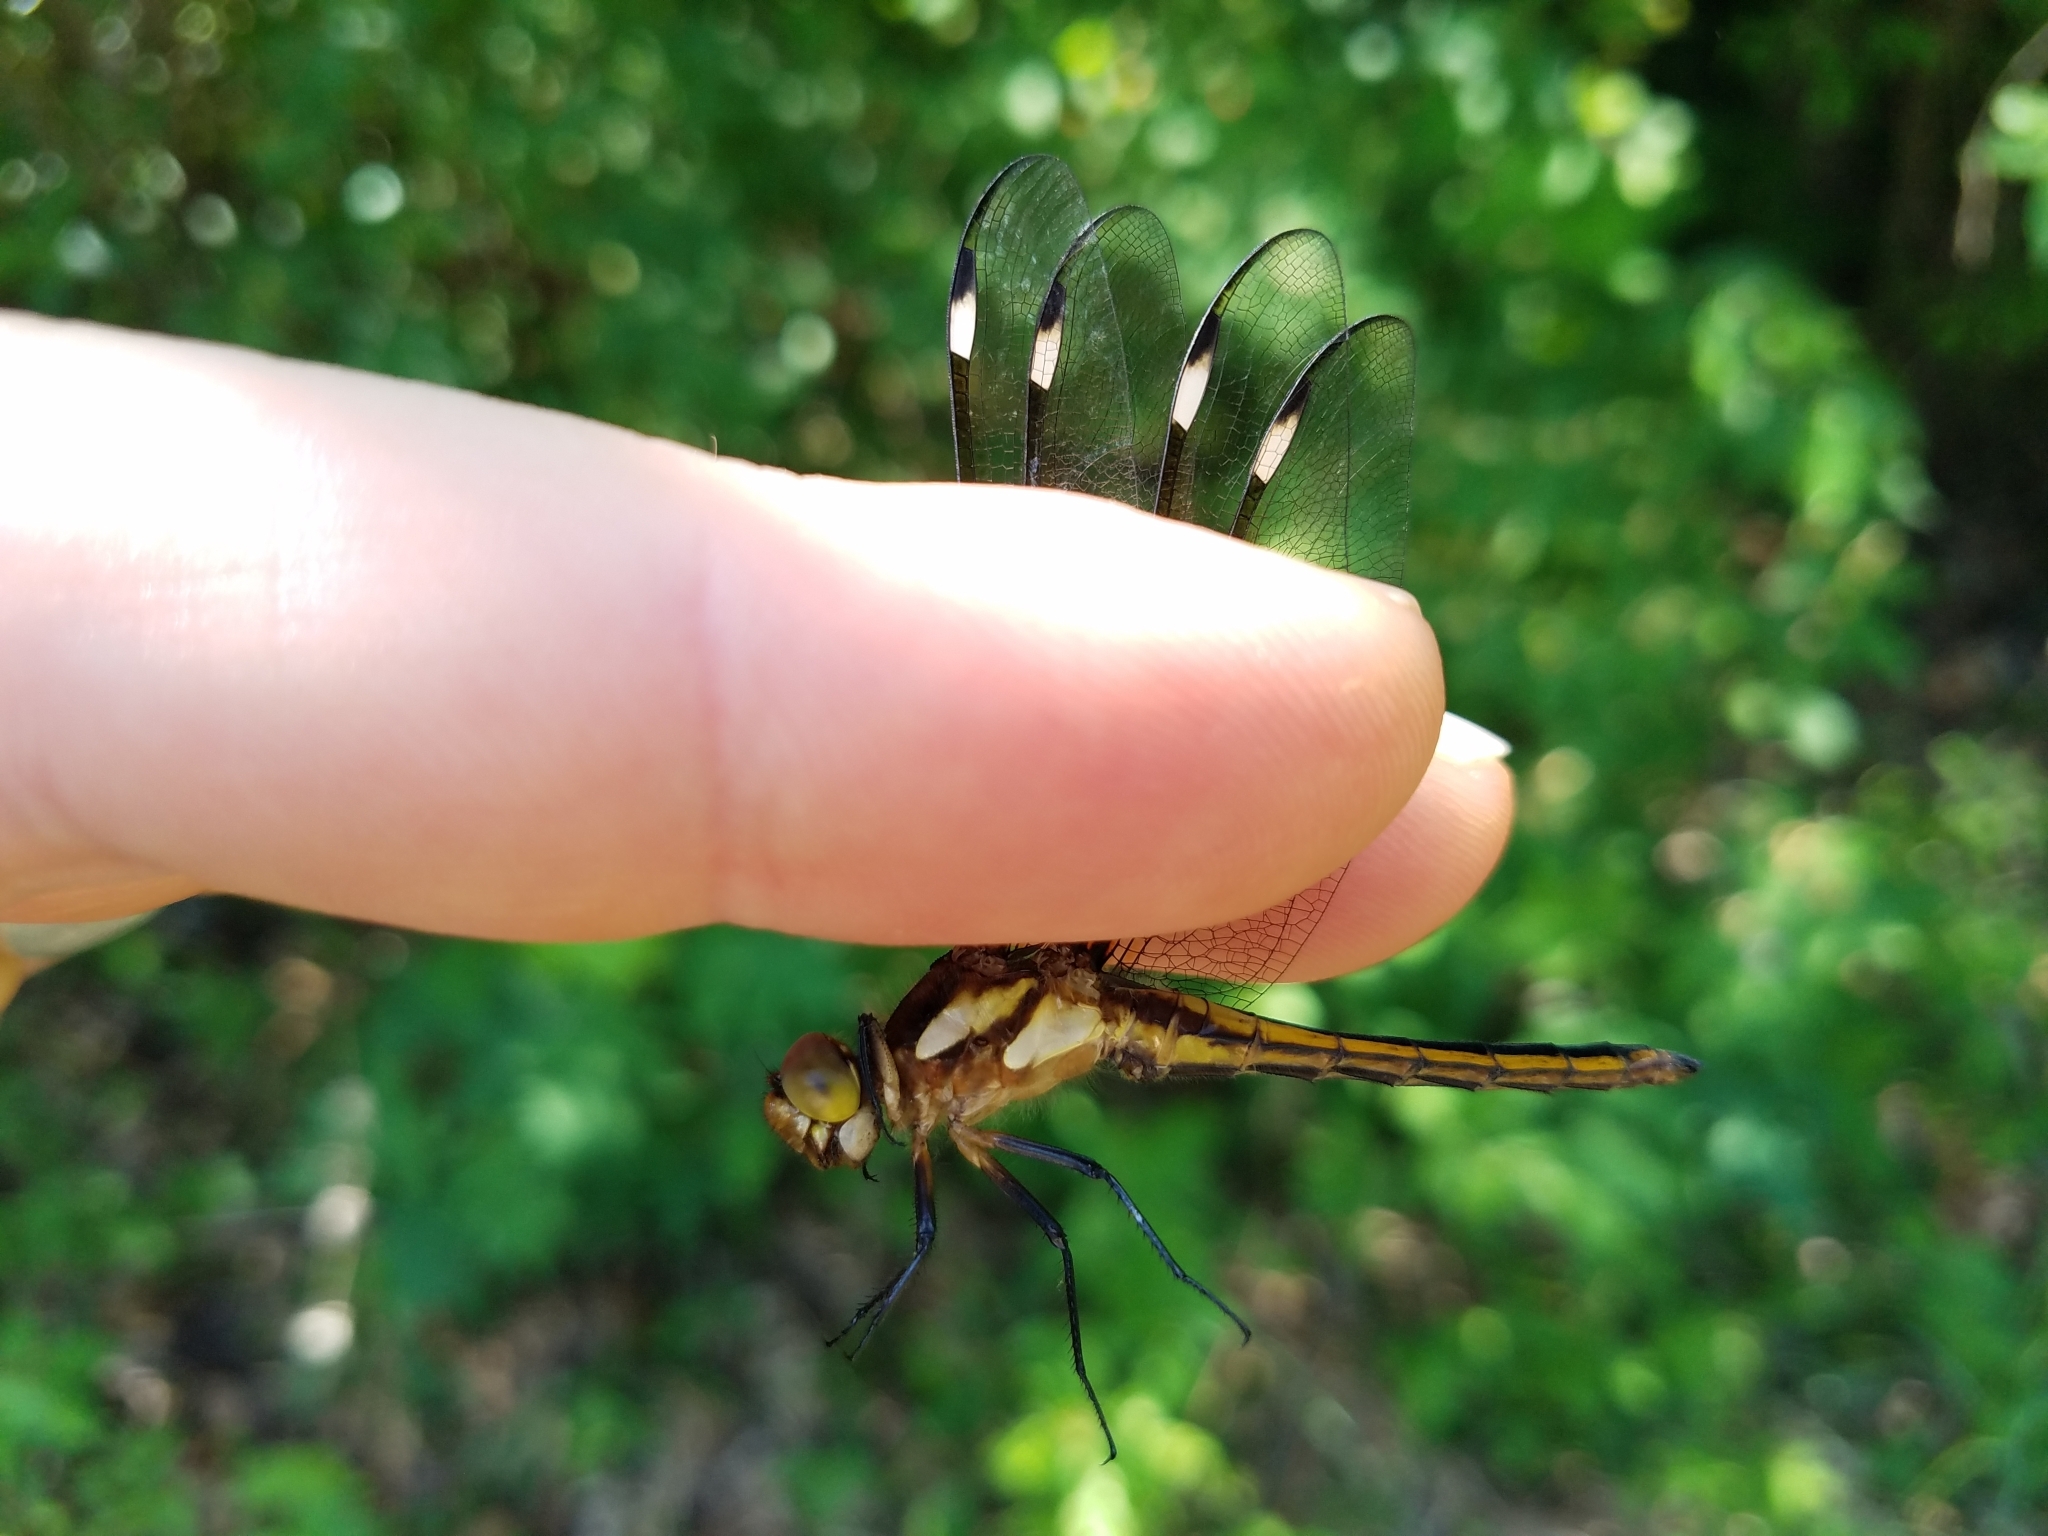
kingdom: Animalia
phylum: Arthropoda
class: Insecta
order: Odonata
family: Libellulidae
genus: Libellula
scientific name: Libellula cyanea
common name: Spangled skimmer
